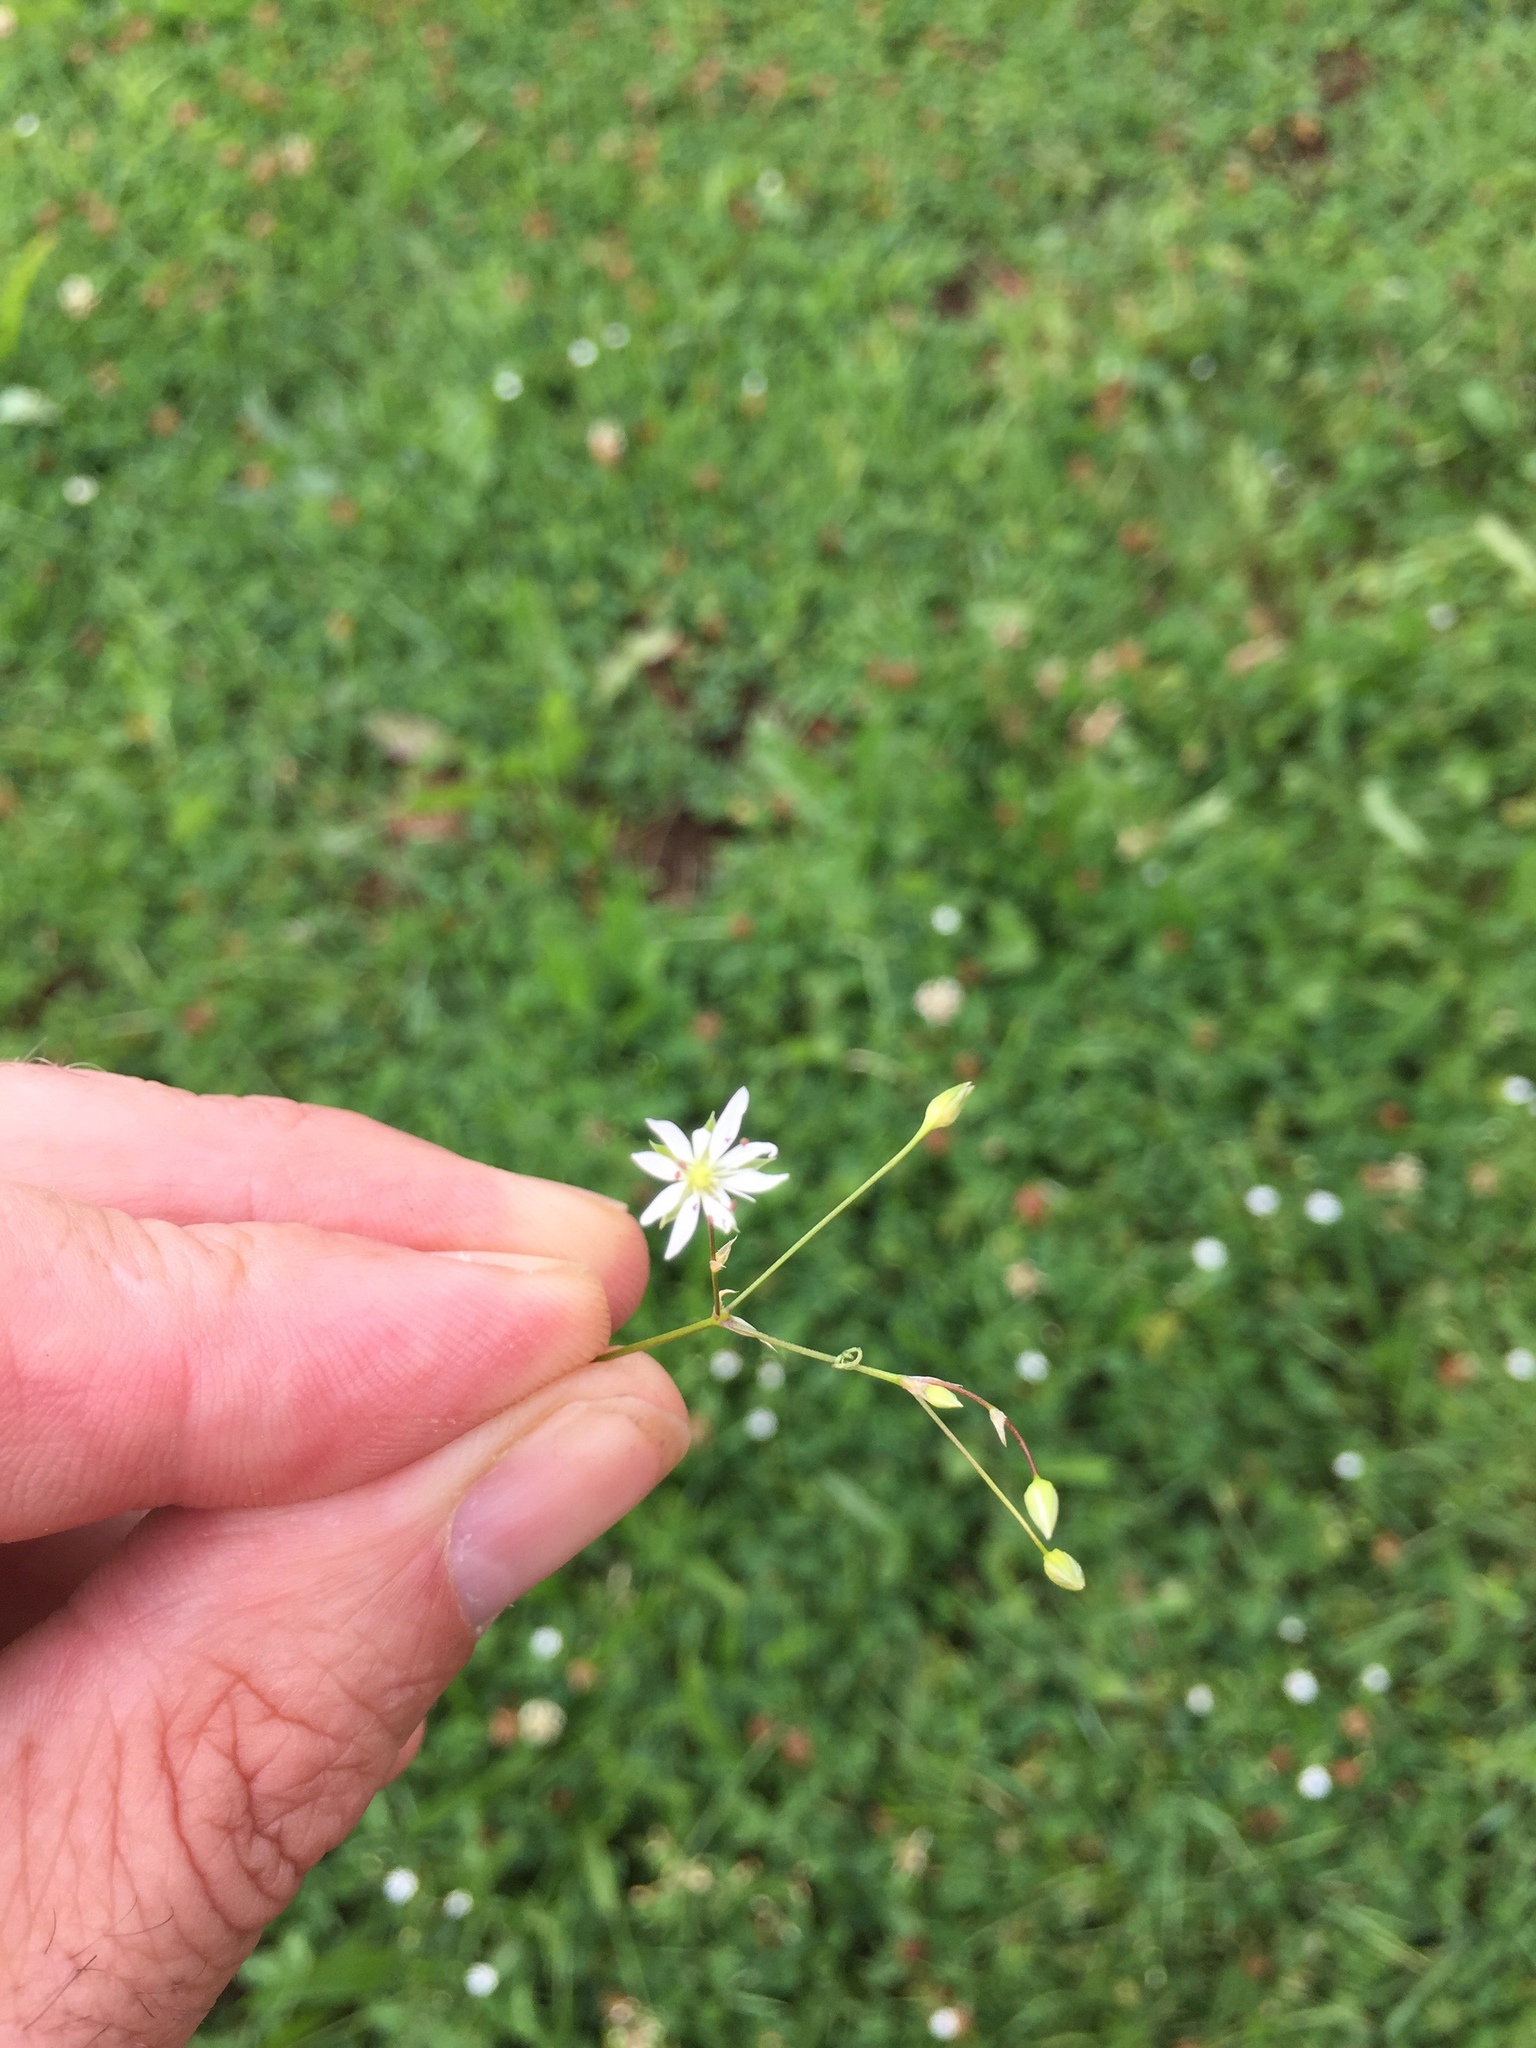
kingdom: Plantae
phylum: Tracheophyta
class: Magnoliopsida
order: Caryophyllales
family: Caryophyllaceae
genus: Stellaria
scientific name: Stellaria graminea
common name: Grass-like starwort
